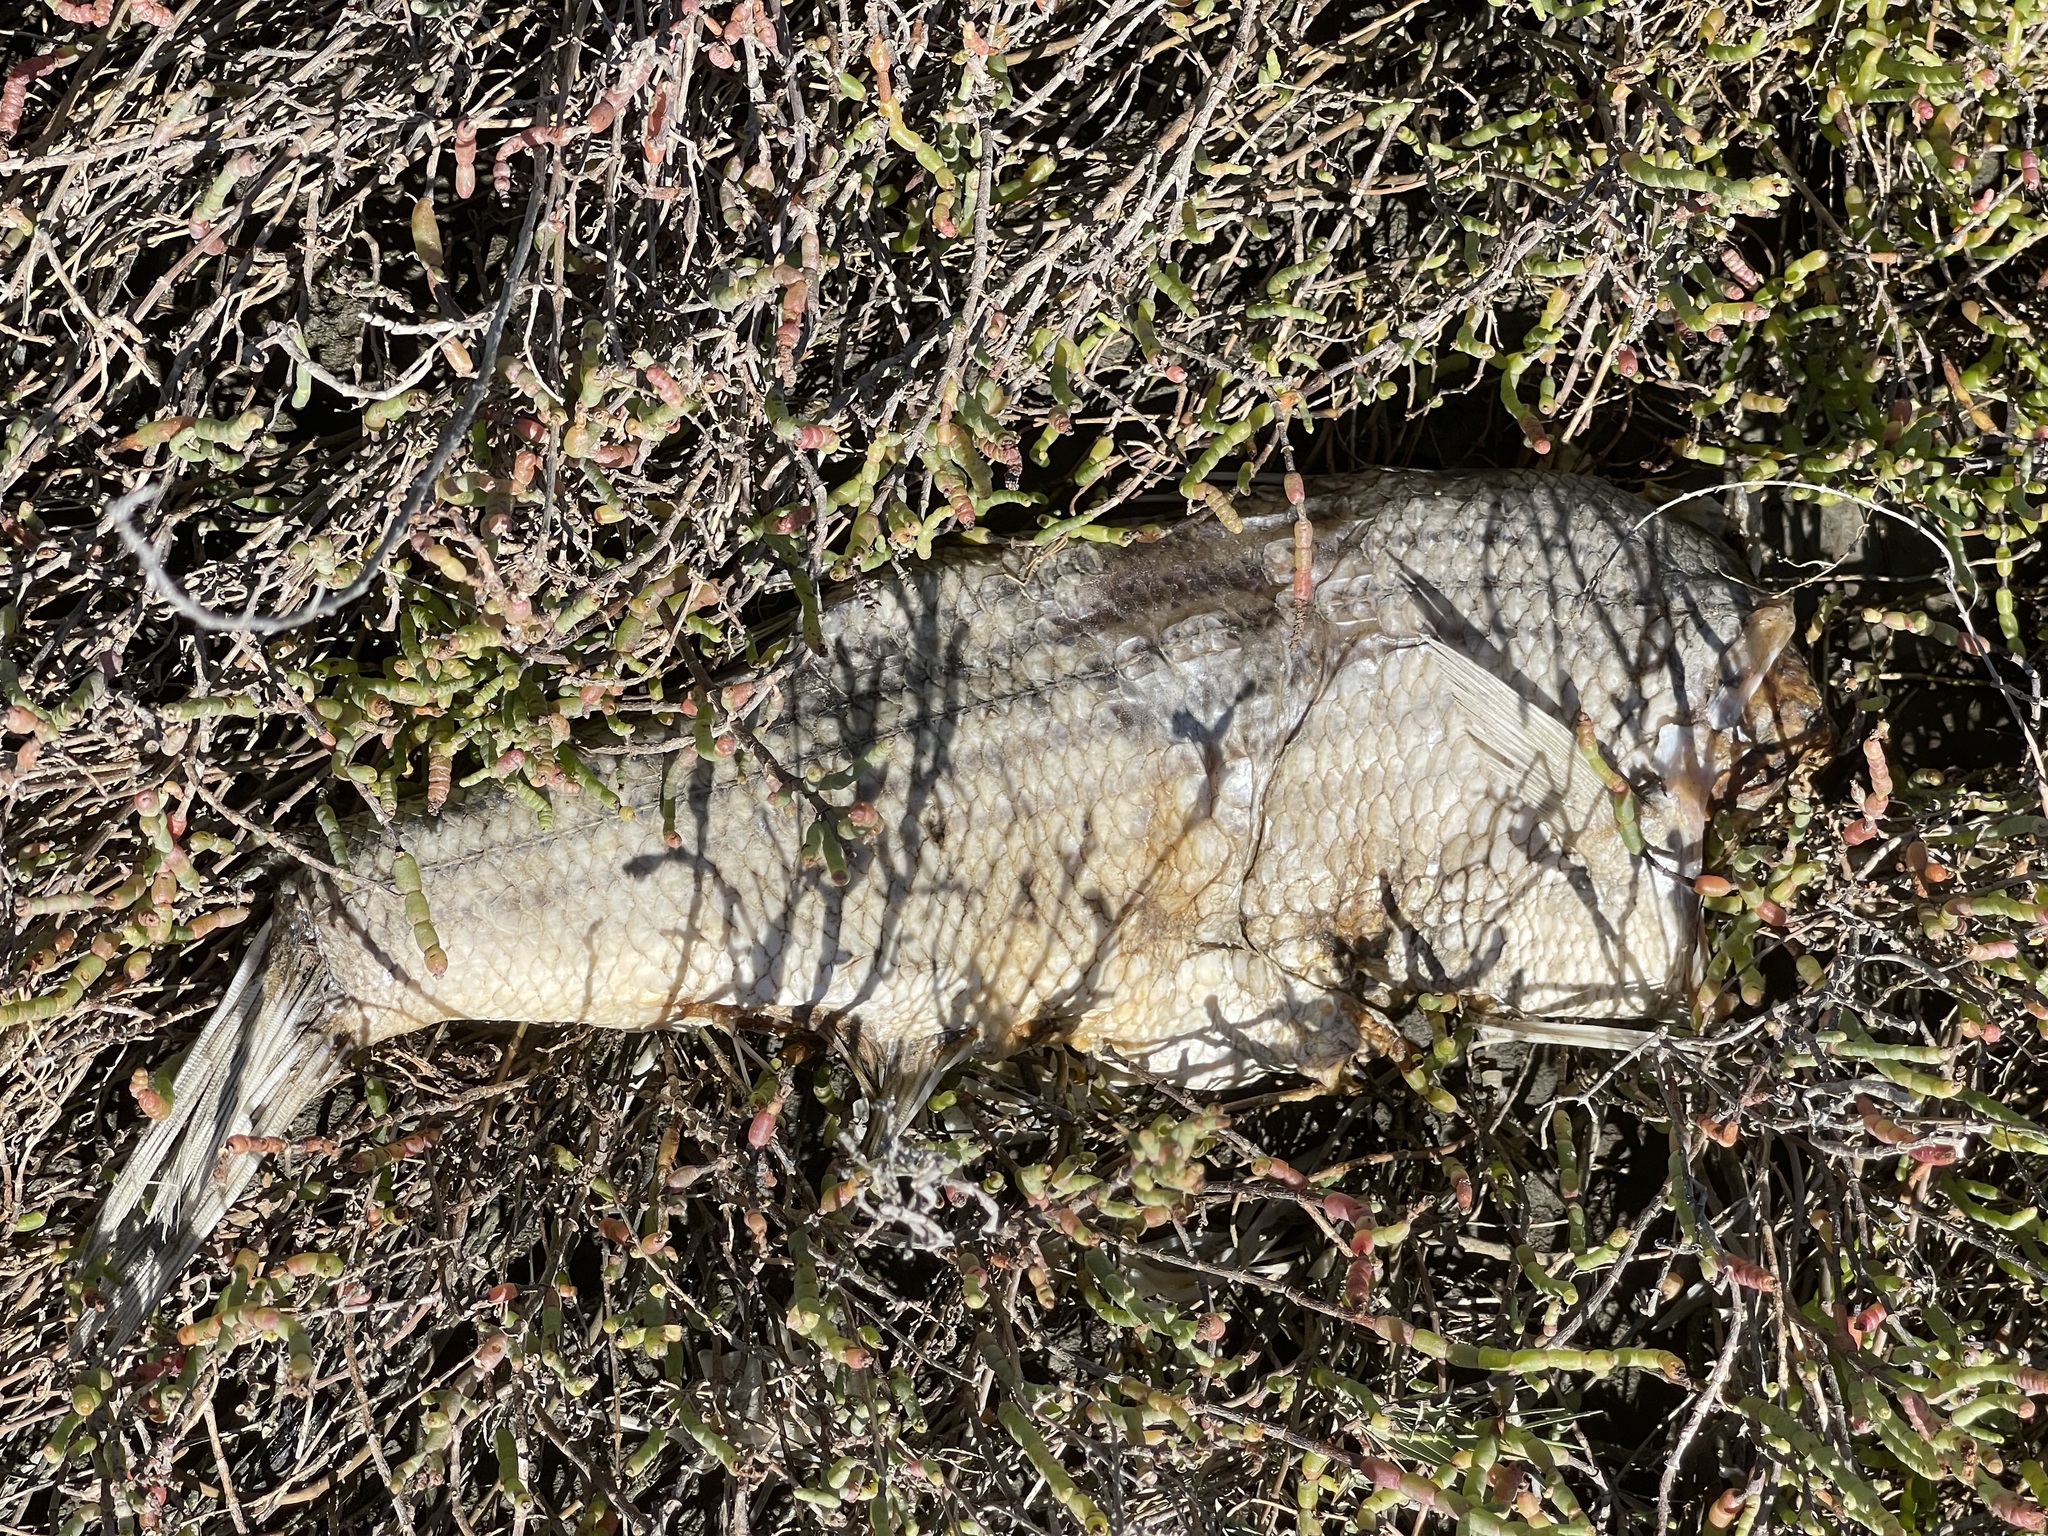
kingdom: Animalia
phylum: Chordata
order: Perciformes
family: Moronidae
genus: Morone
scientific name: Morone saxatilis
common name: Striped bass
